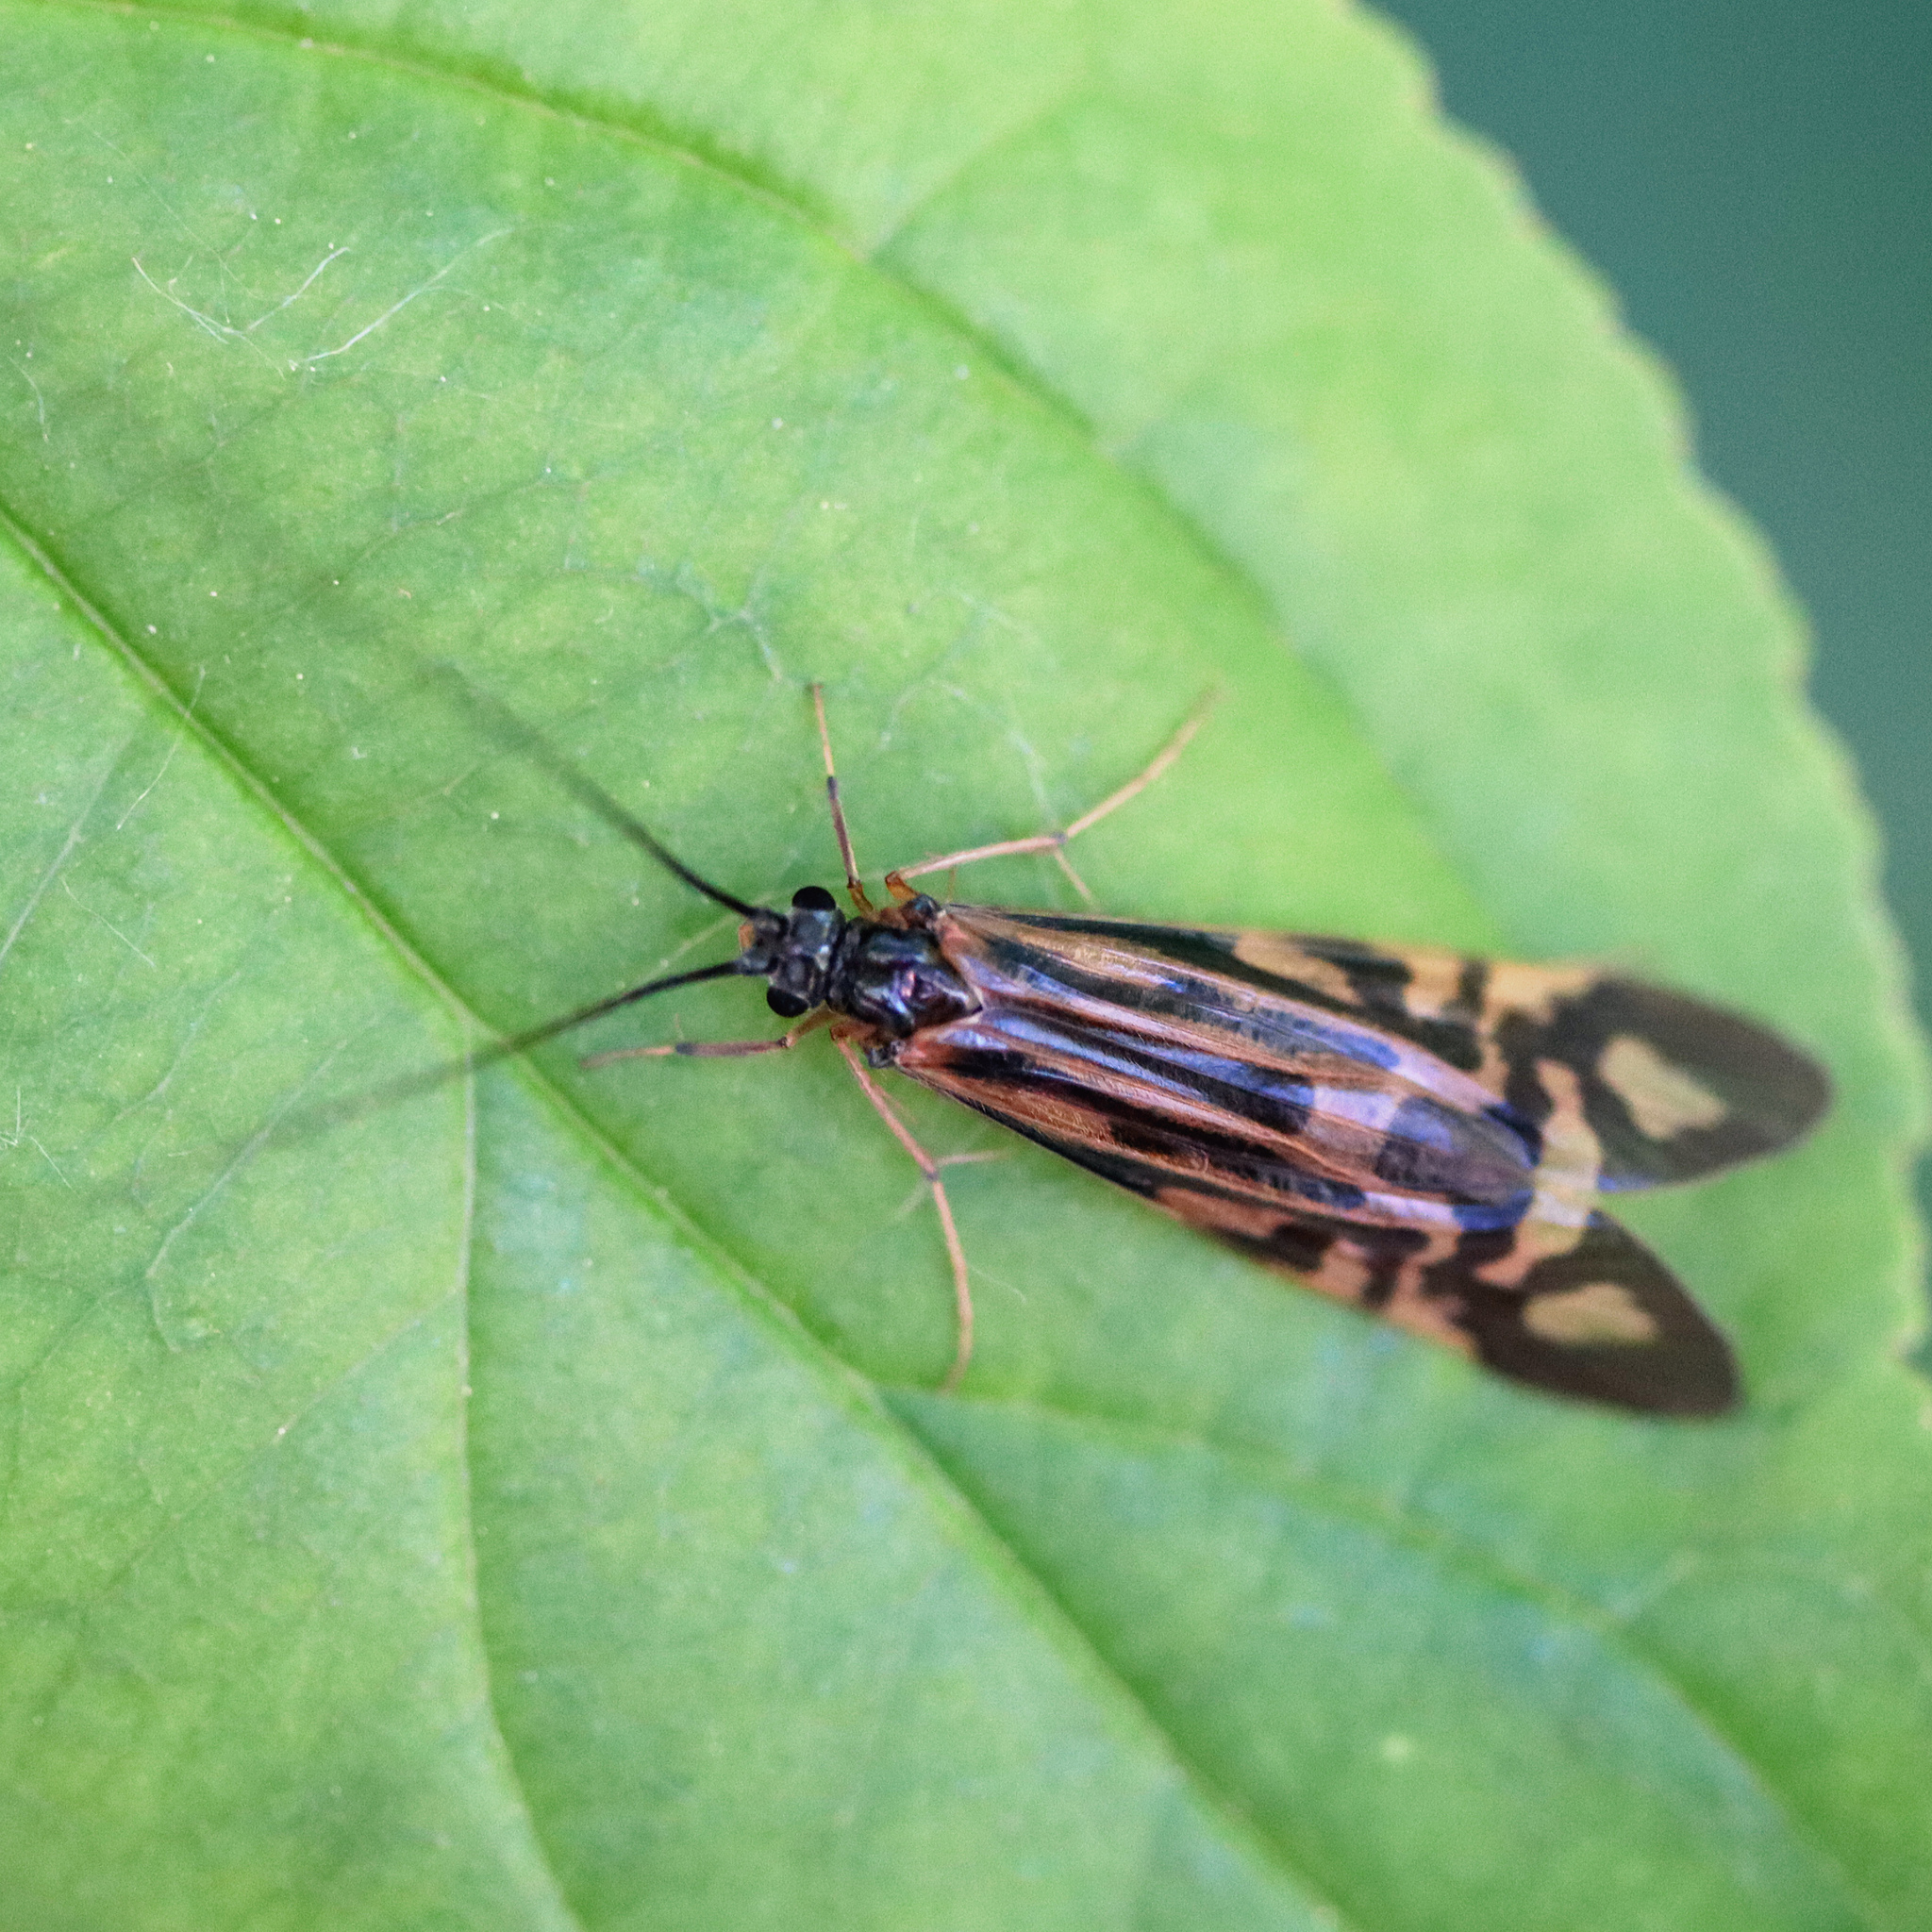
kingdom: Animalia
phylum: Arthropoda
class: Insecta
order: Trichoptera
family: Hydropsychidae
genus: Macrostemum
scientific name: Macrostemum zebratum
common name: Zebra caddisfly
